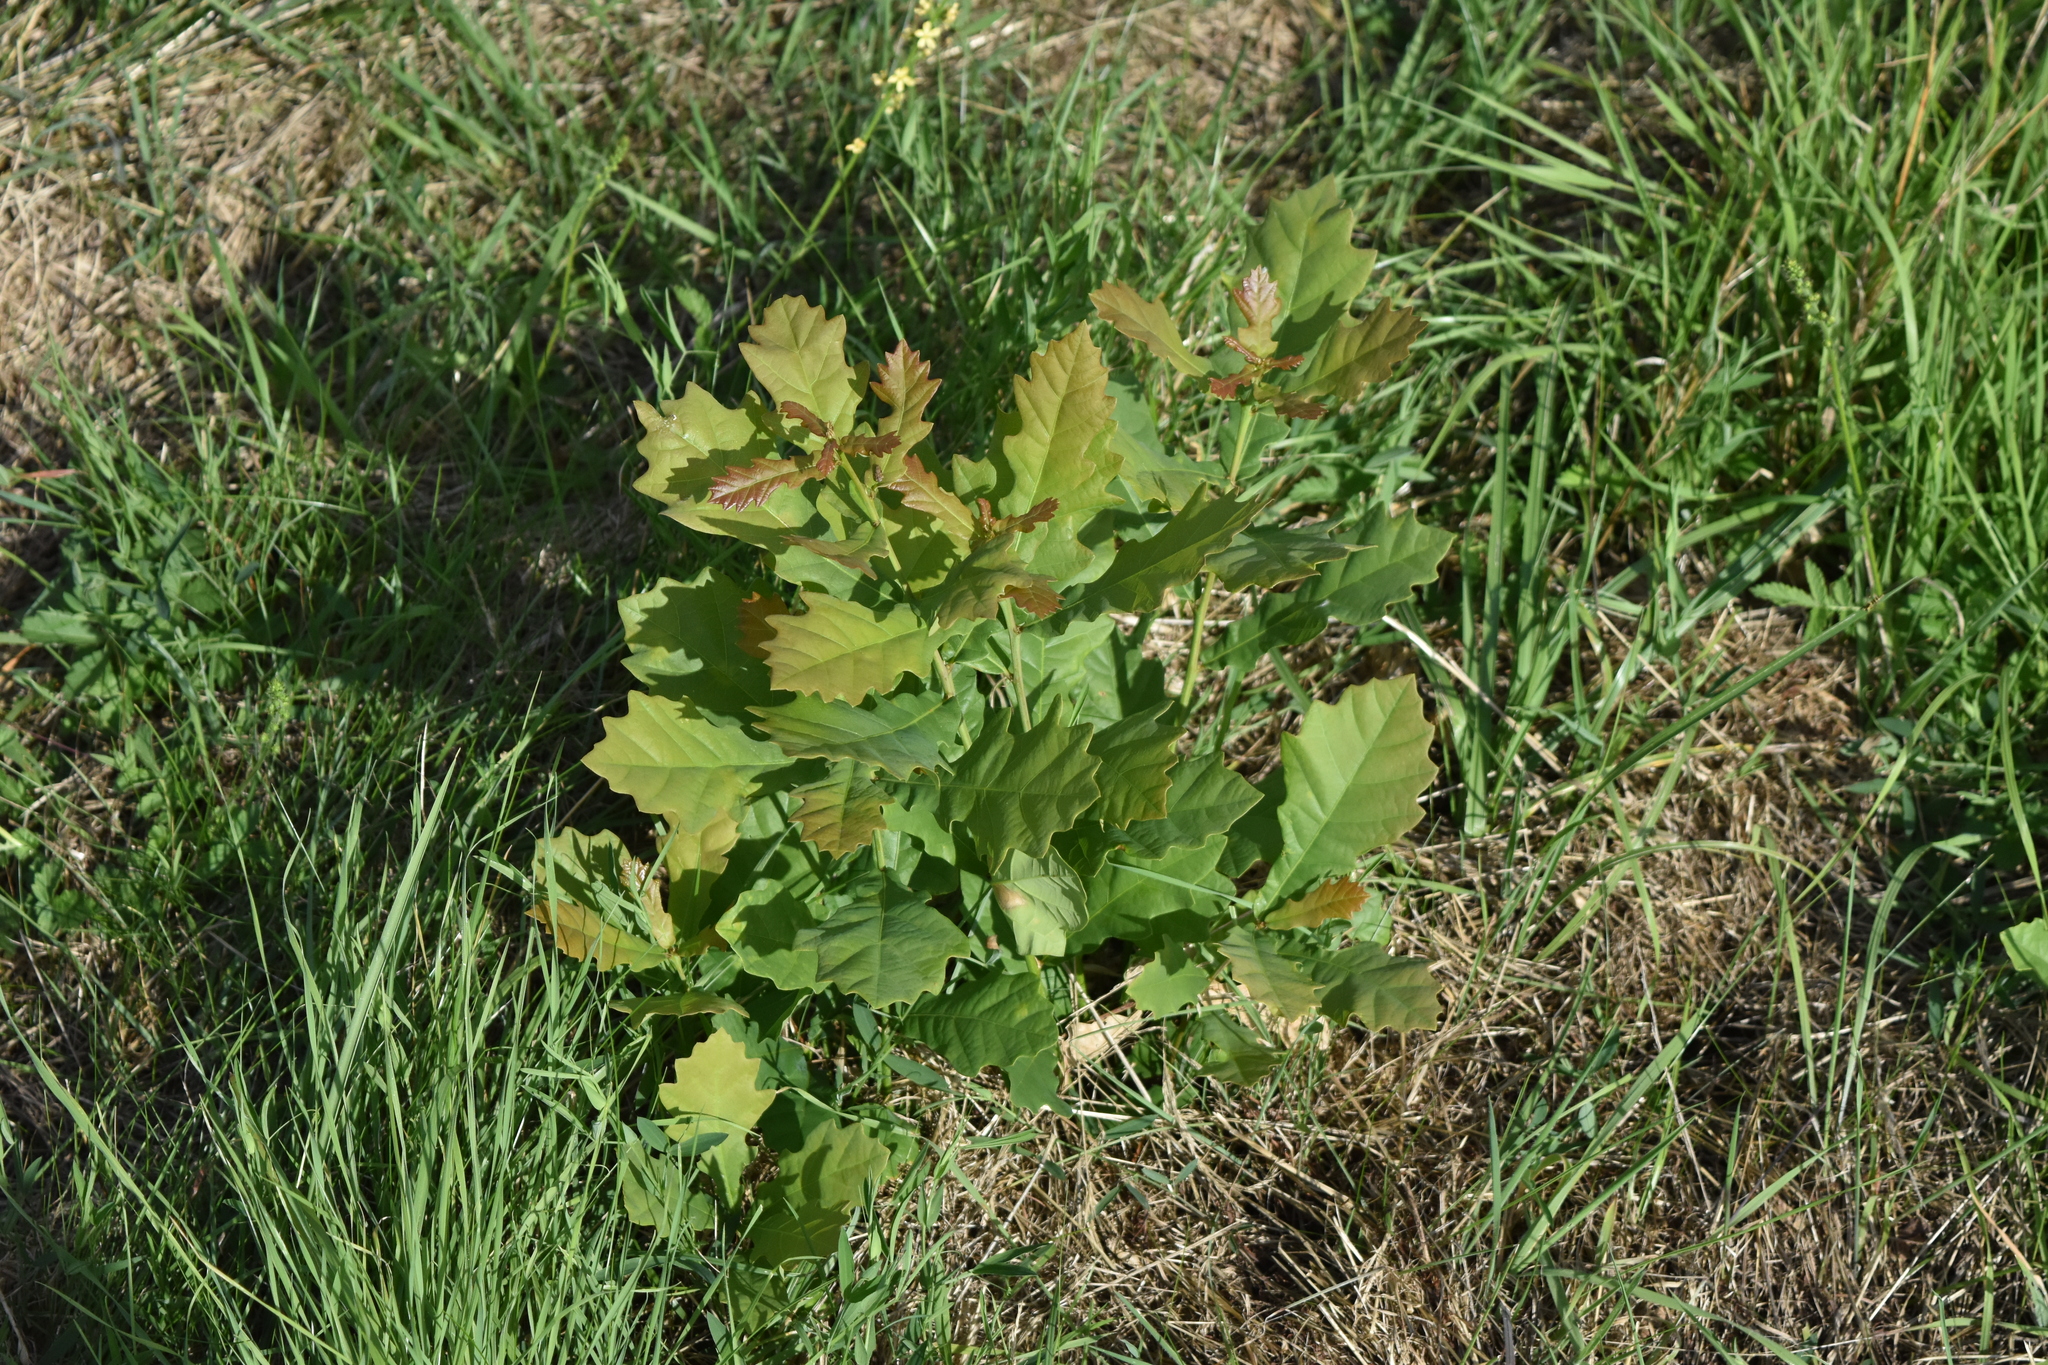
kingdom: Plantae
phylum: Tracheophyta
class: Magnoliopsida
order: Fagales
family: Fagaceae
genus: Quercus
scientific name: Quercus rubra
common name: Red oak
